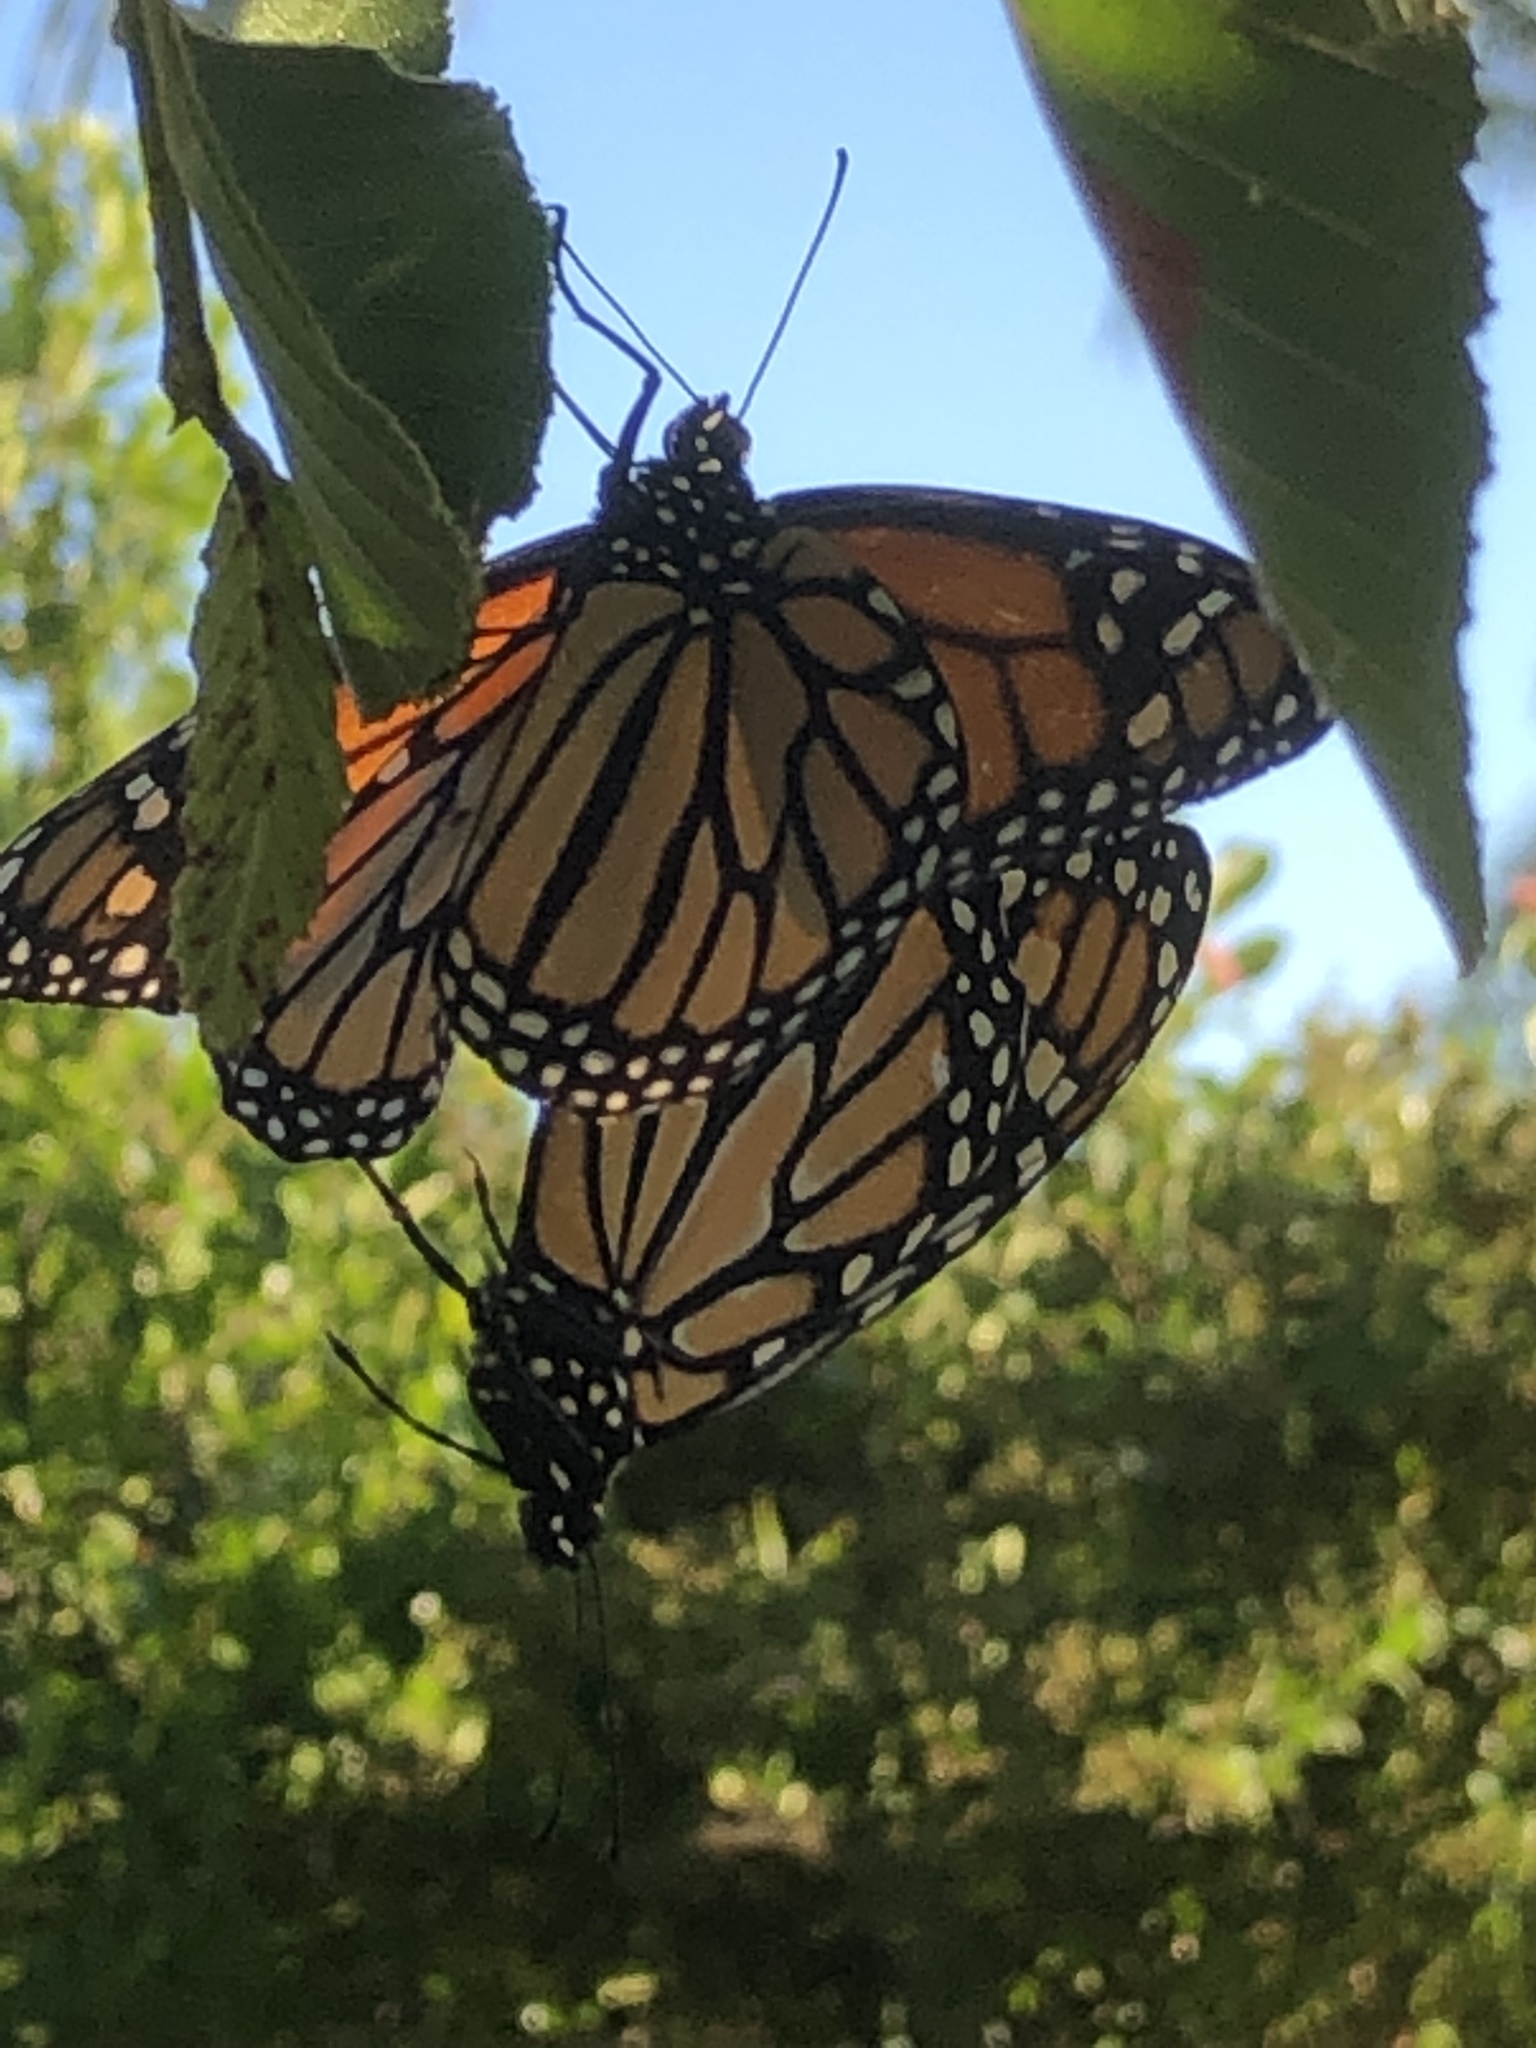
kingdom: Animalia
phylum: Arthropoda
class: Insecta
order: Lepidoptera
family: Nymphalidae
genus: Danaus
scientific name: Danaus plexippus
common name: Monarch
